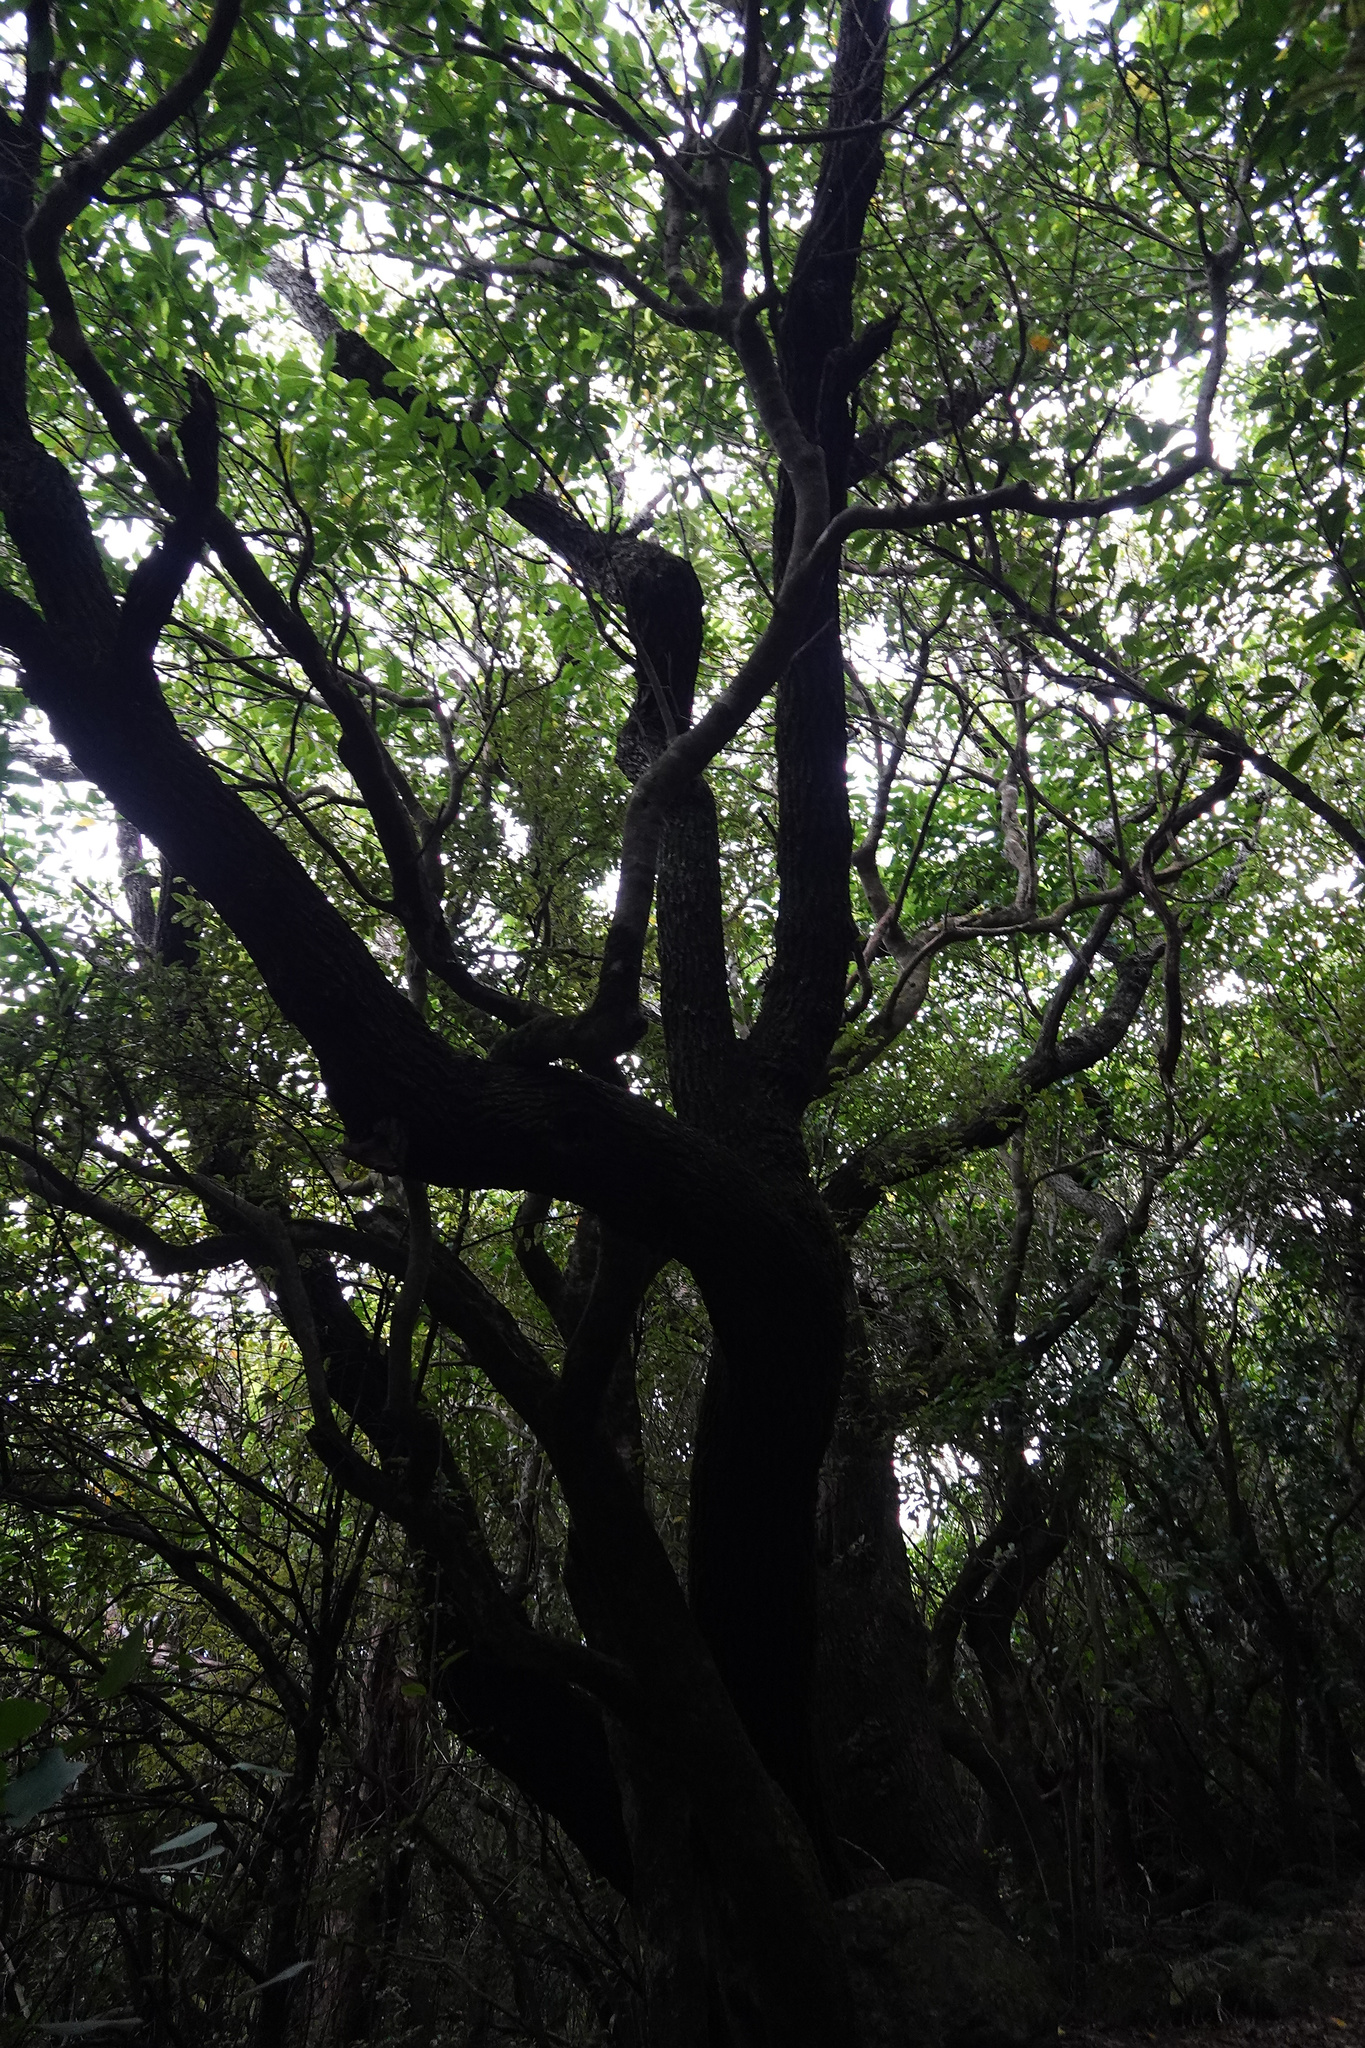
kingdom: Plantae
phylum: Tracheophyta
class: Magnoliopsida
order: Apiales
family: Griseliniaceae
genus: Griselinia
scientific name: Griselinia littoralis
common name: New zealand broadleaf
